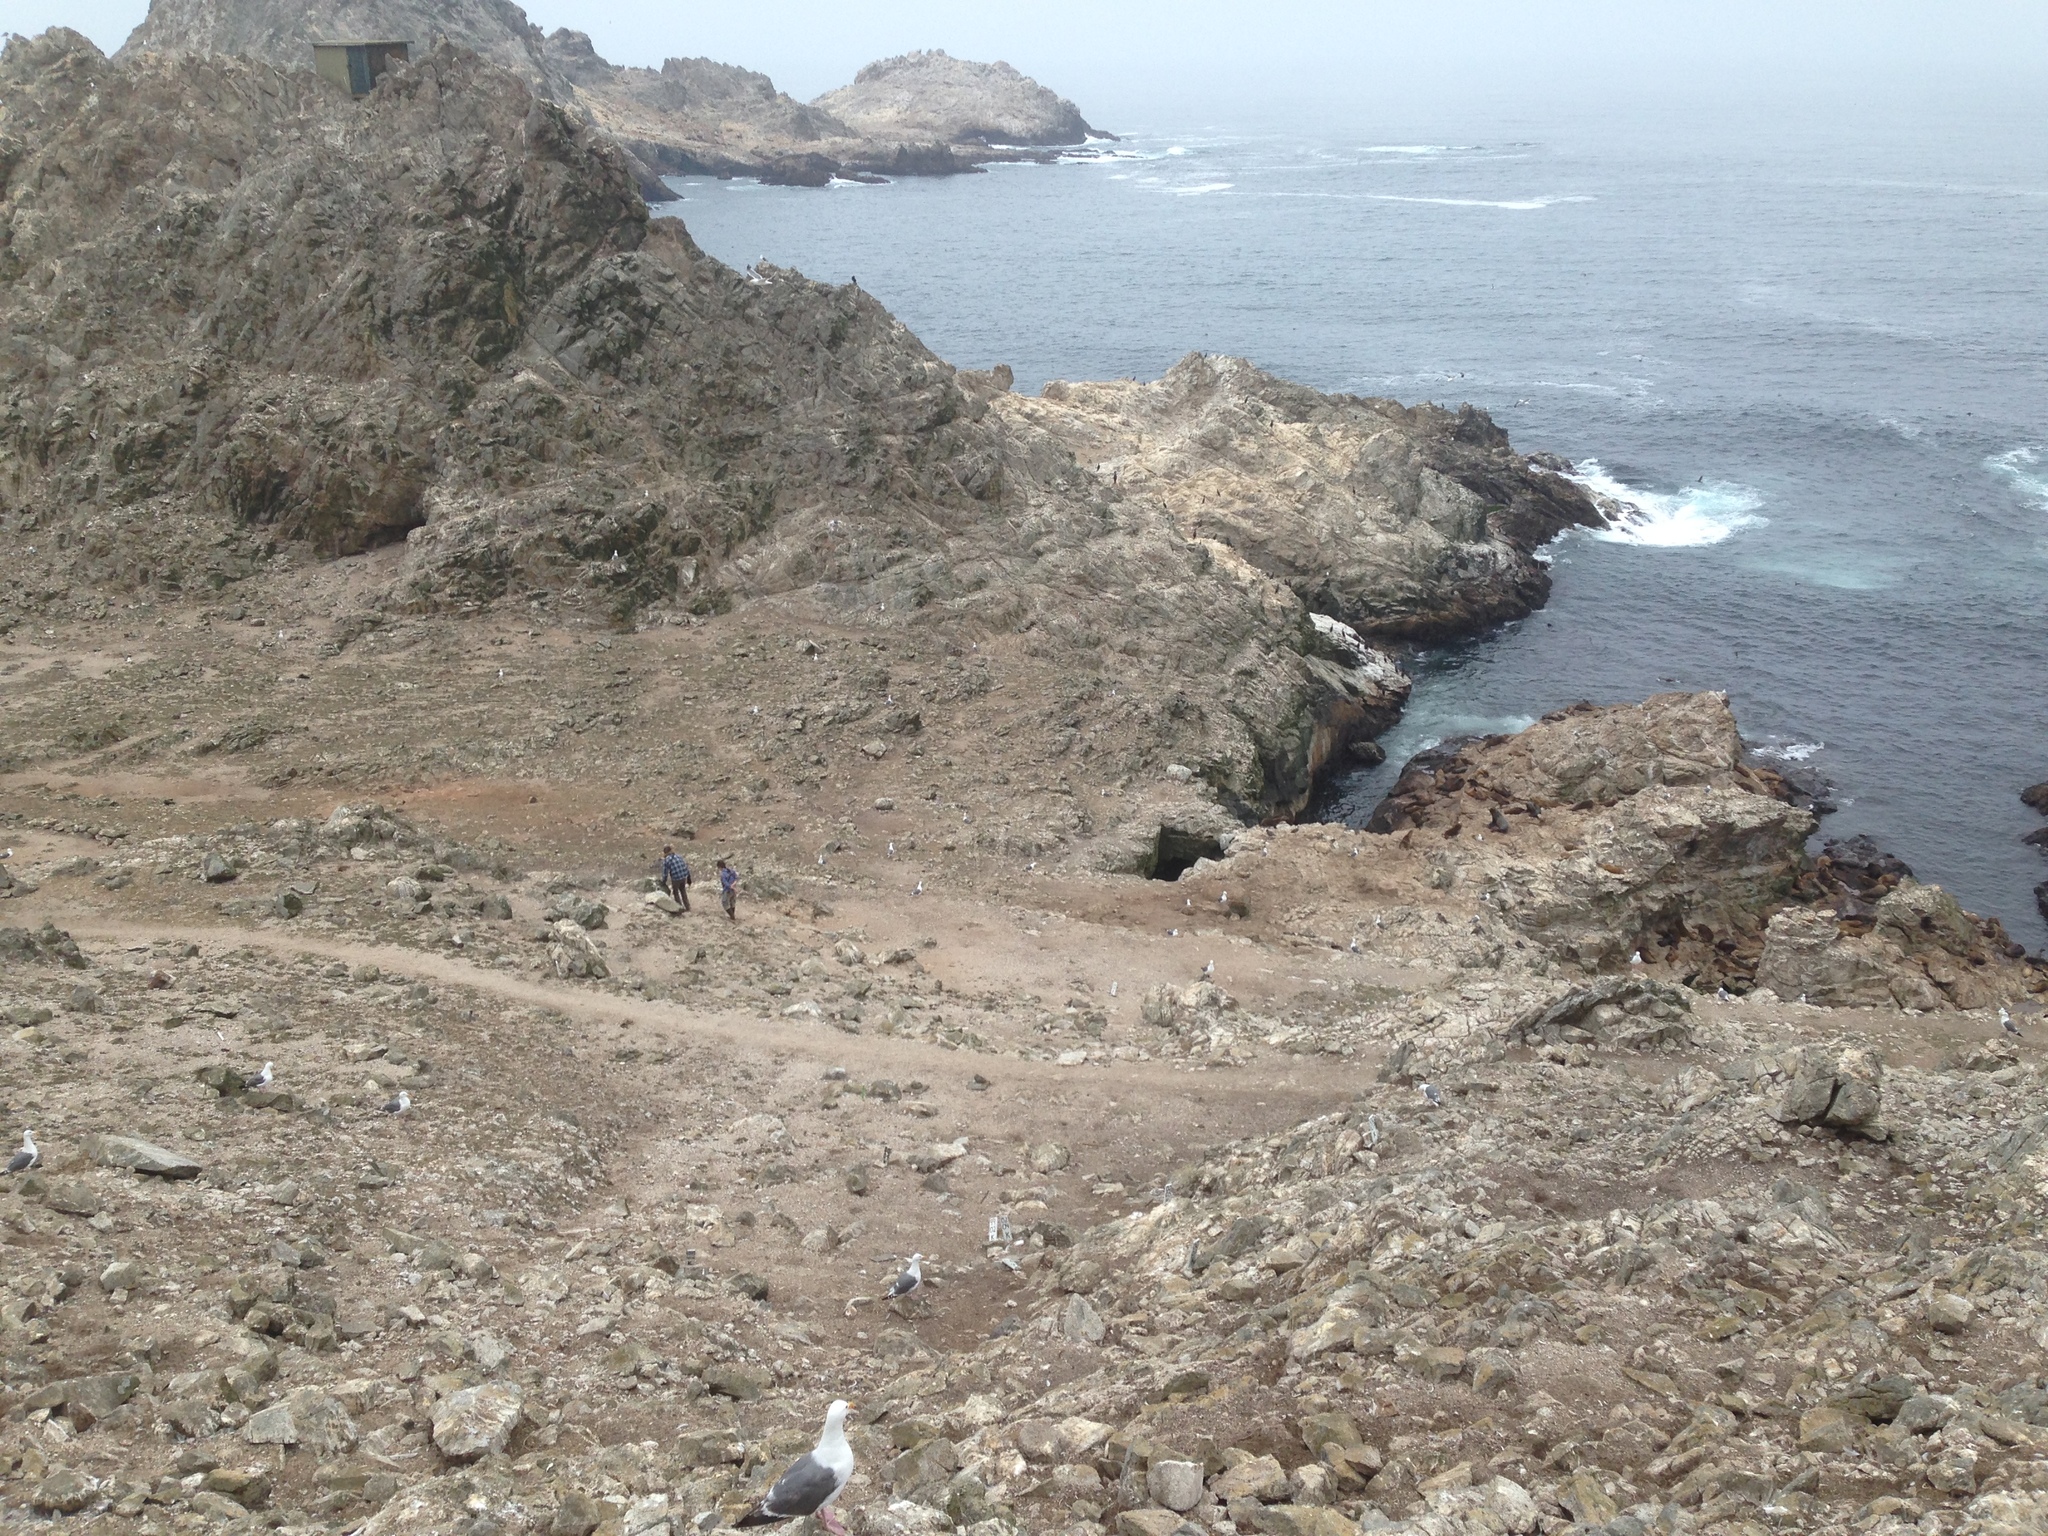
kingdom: Animalia
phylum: Chordata
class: Aves
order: Charadriiformes
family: Laridae
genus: Larus
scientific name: Larus occidentalis
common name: Western gull
